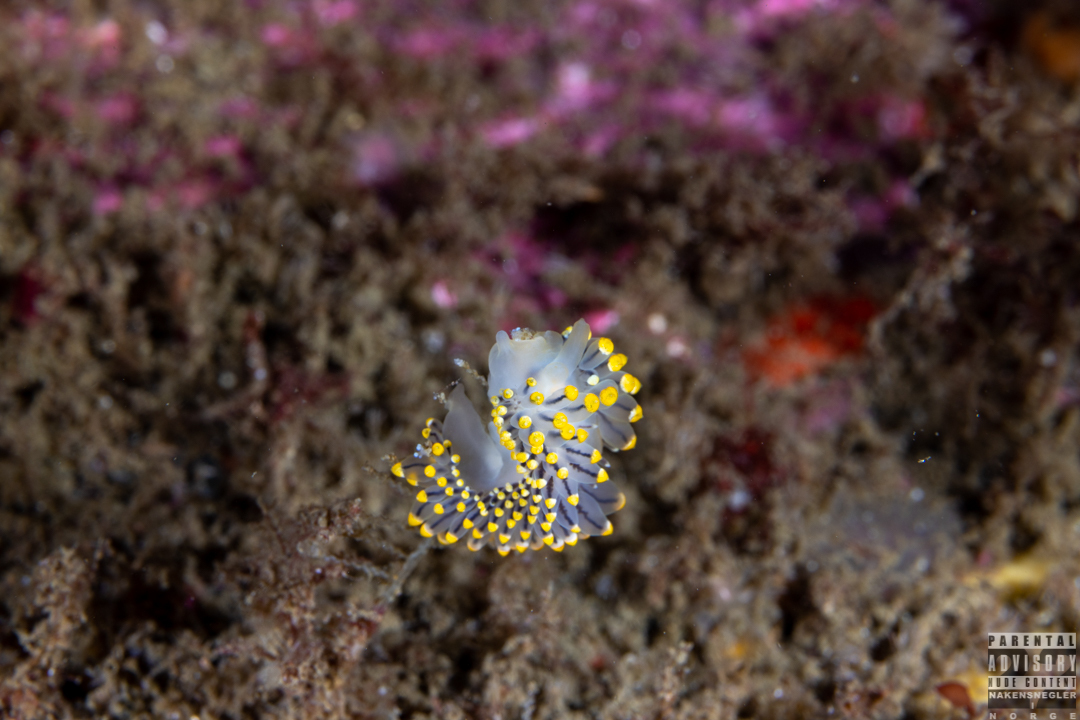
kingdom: Animalia
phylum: Mollusca
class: Gastropoda
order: Nudibranchia
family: Eubranchidae
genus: Eubranchus
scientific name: Eubranchus tricolor
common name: Painted balloon aeolis
